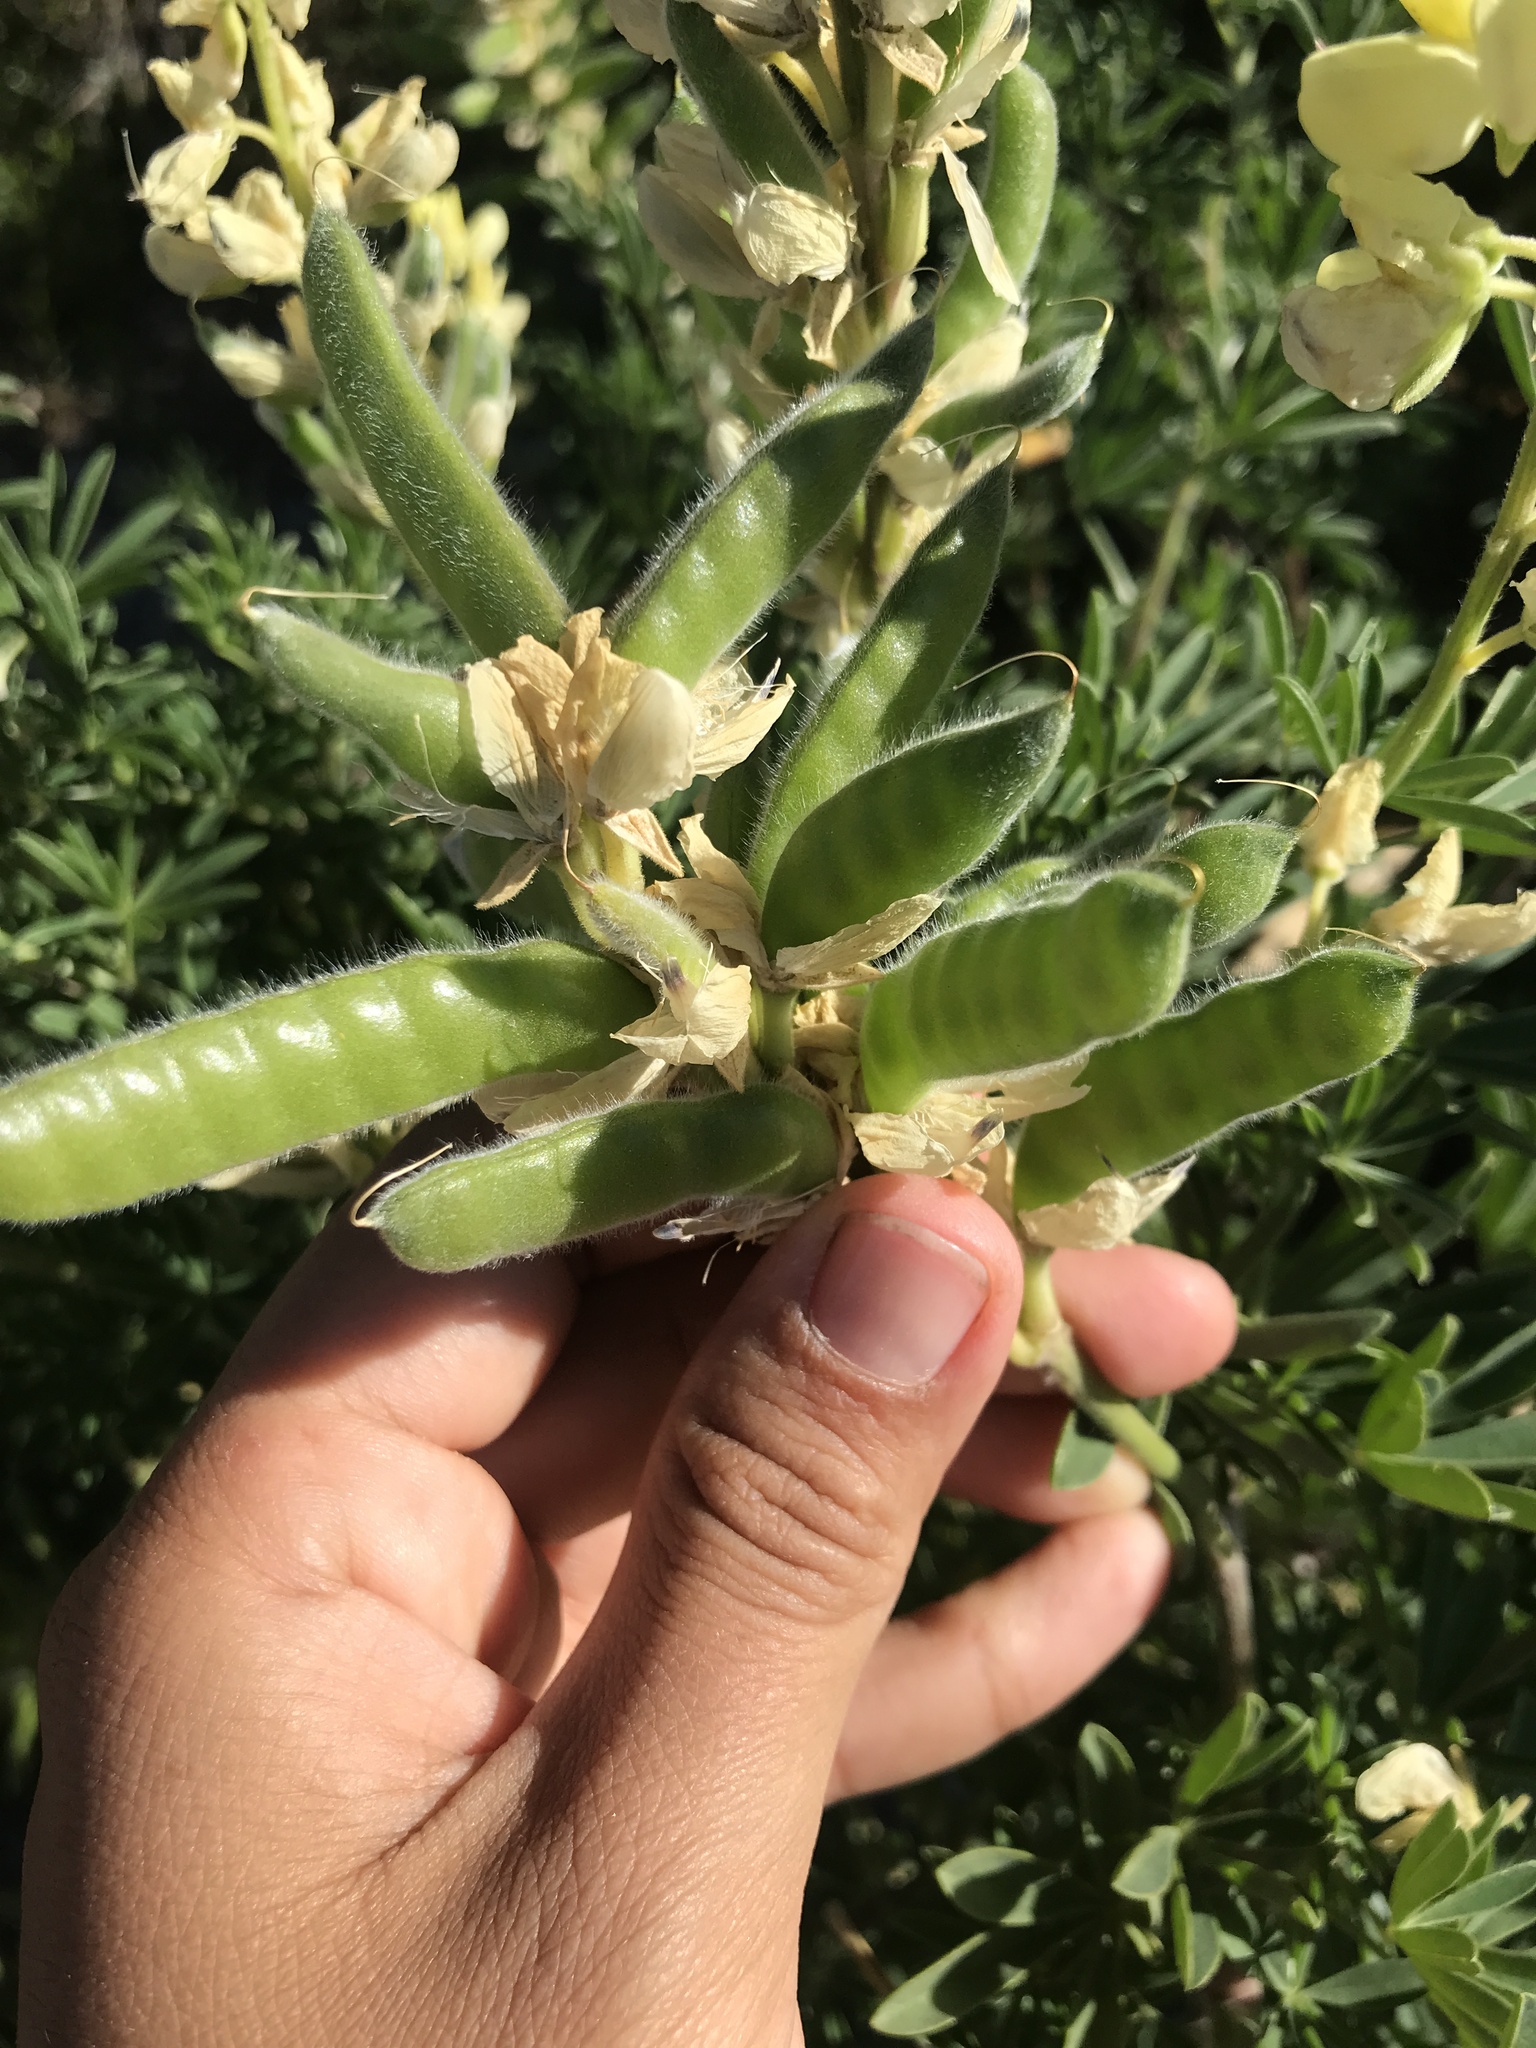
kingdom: Plantae
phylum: Tracheophyta
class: Magnoliopsida
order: Fabales
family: Fabaceae
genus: Lupinus
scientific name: Lupinus arboreus
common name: Yellow bush lupine
